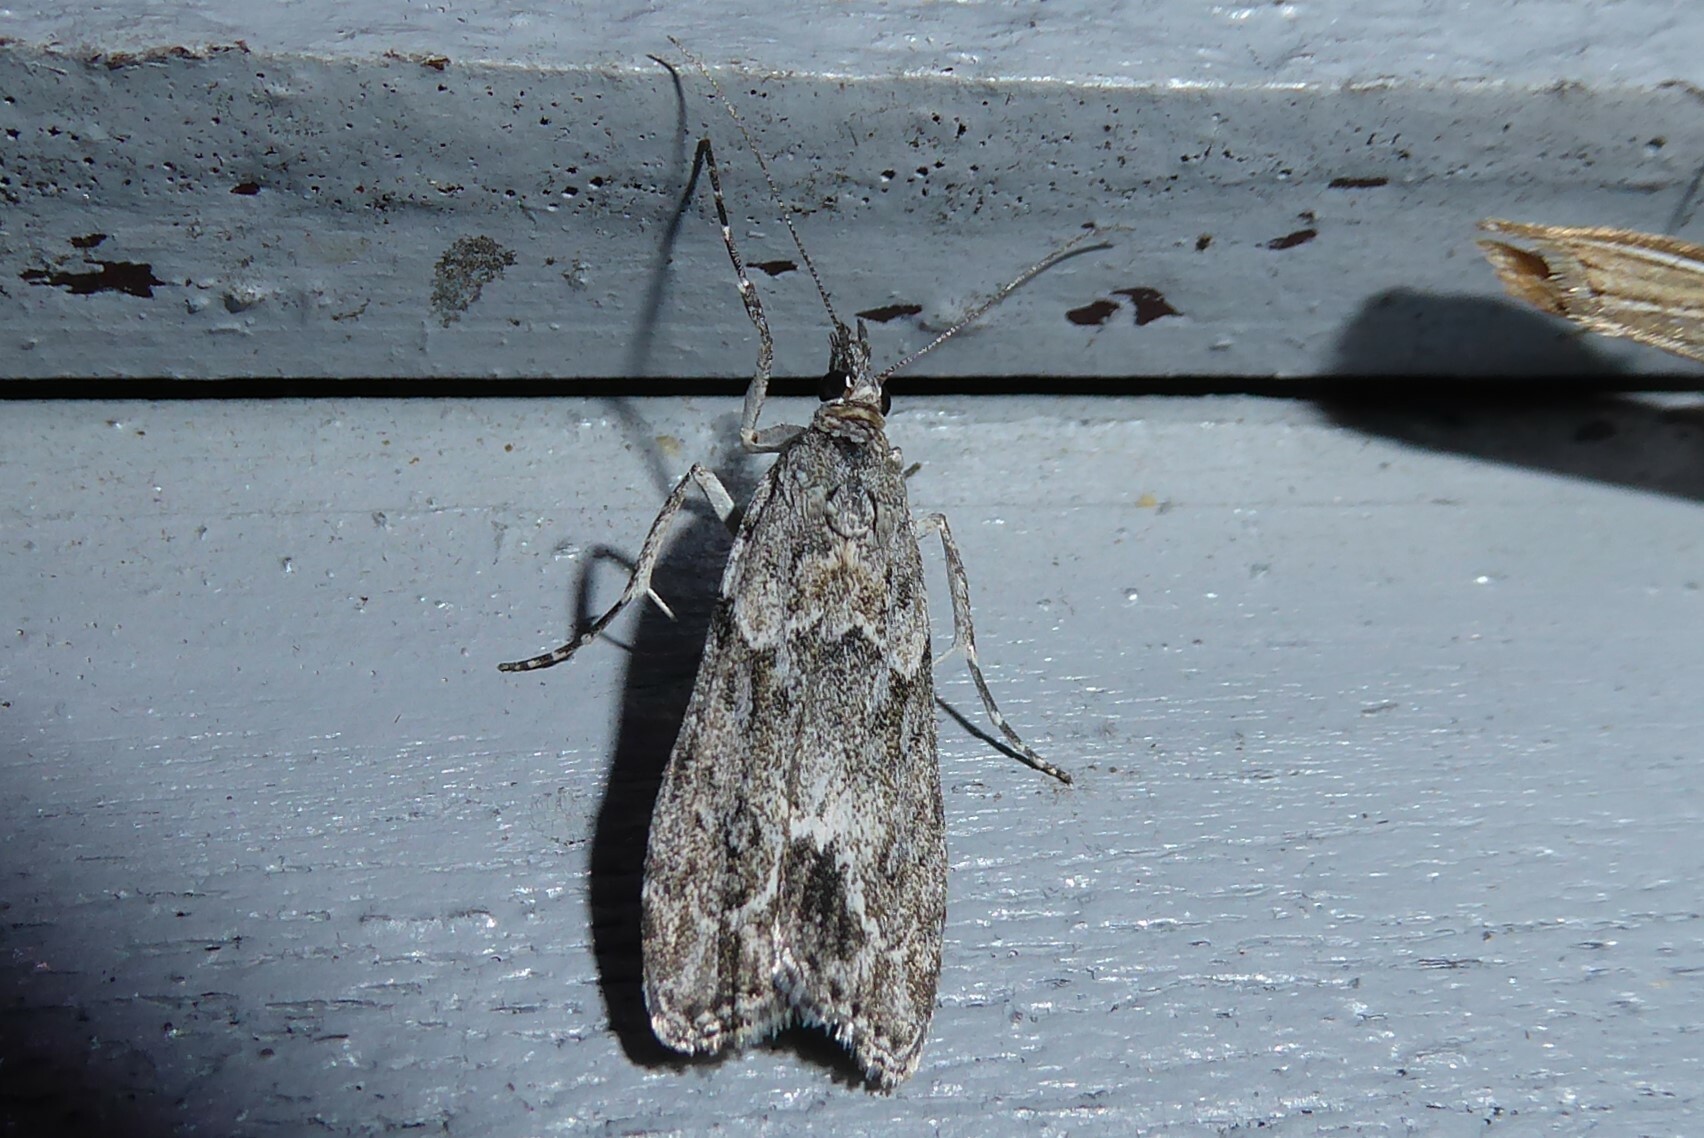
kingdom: Animalia
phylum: Arthropoda
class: Insecta
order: Lepidoptera
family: Crambidae
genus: Eudonia
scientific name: Eudonia rakaiensis
